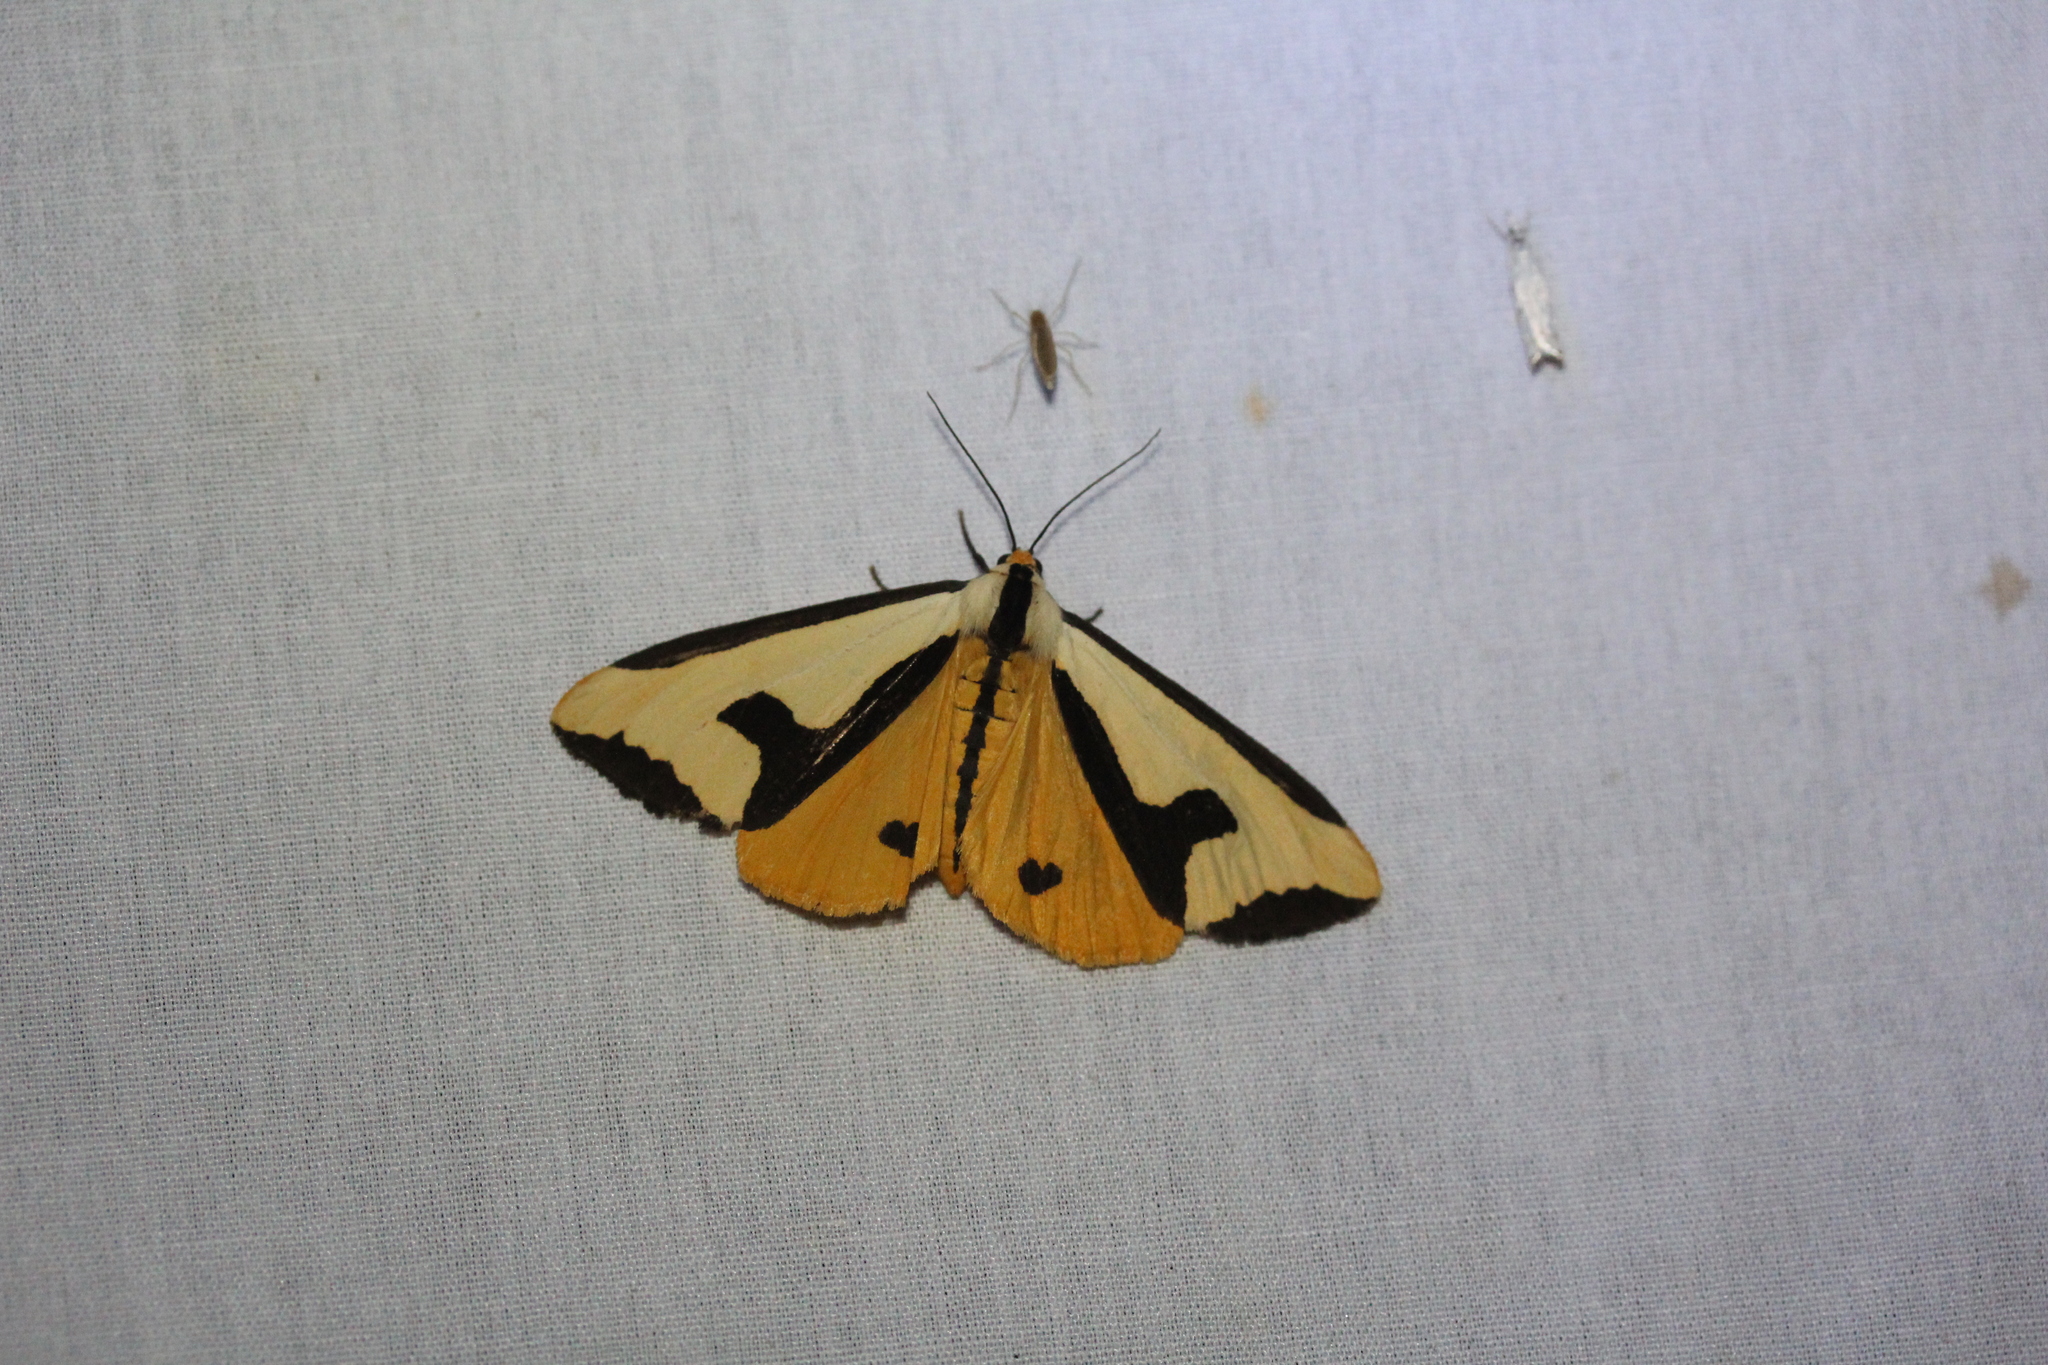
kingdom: Animalia
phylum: Arthropoda
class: Insecta
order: Lepidoptera
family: Erebidae
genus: Haploa
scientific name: Haploa clymene
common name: Clymene moth
